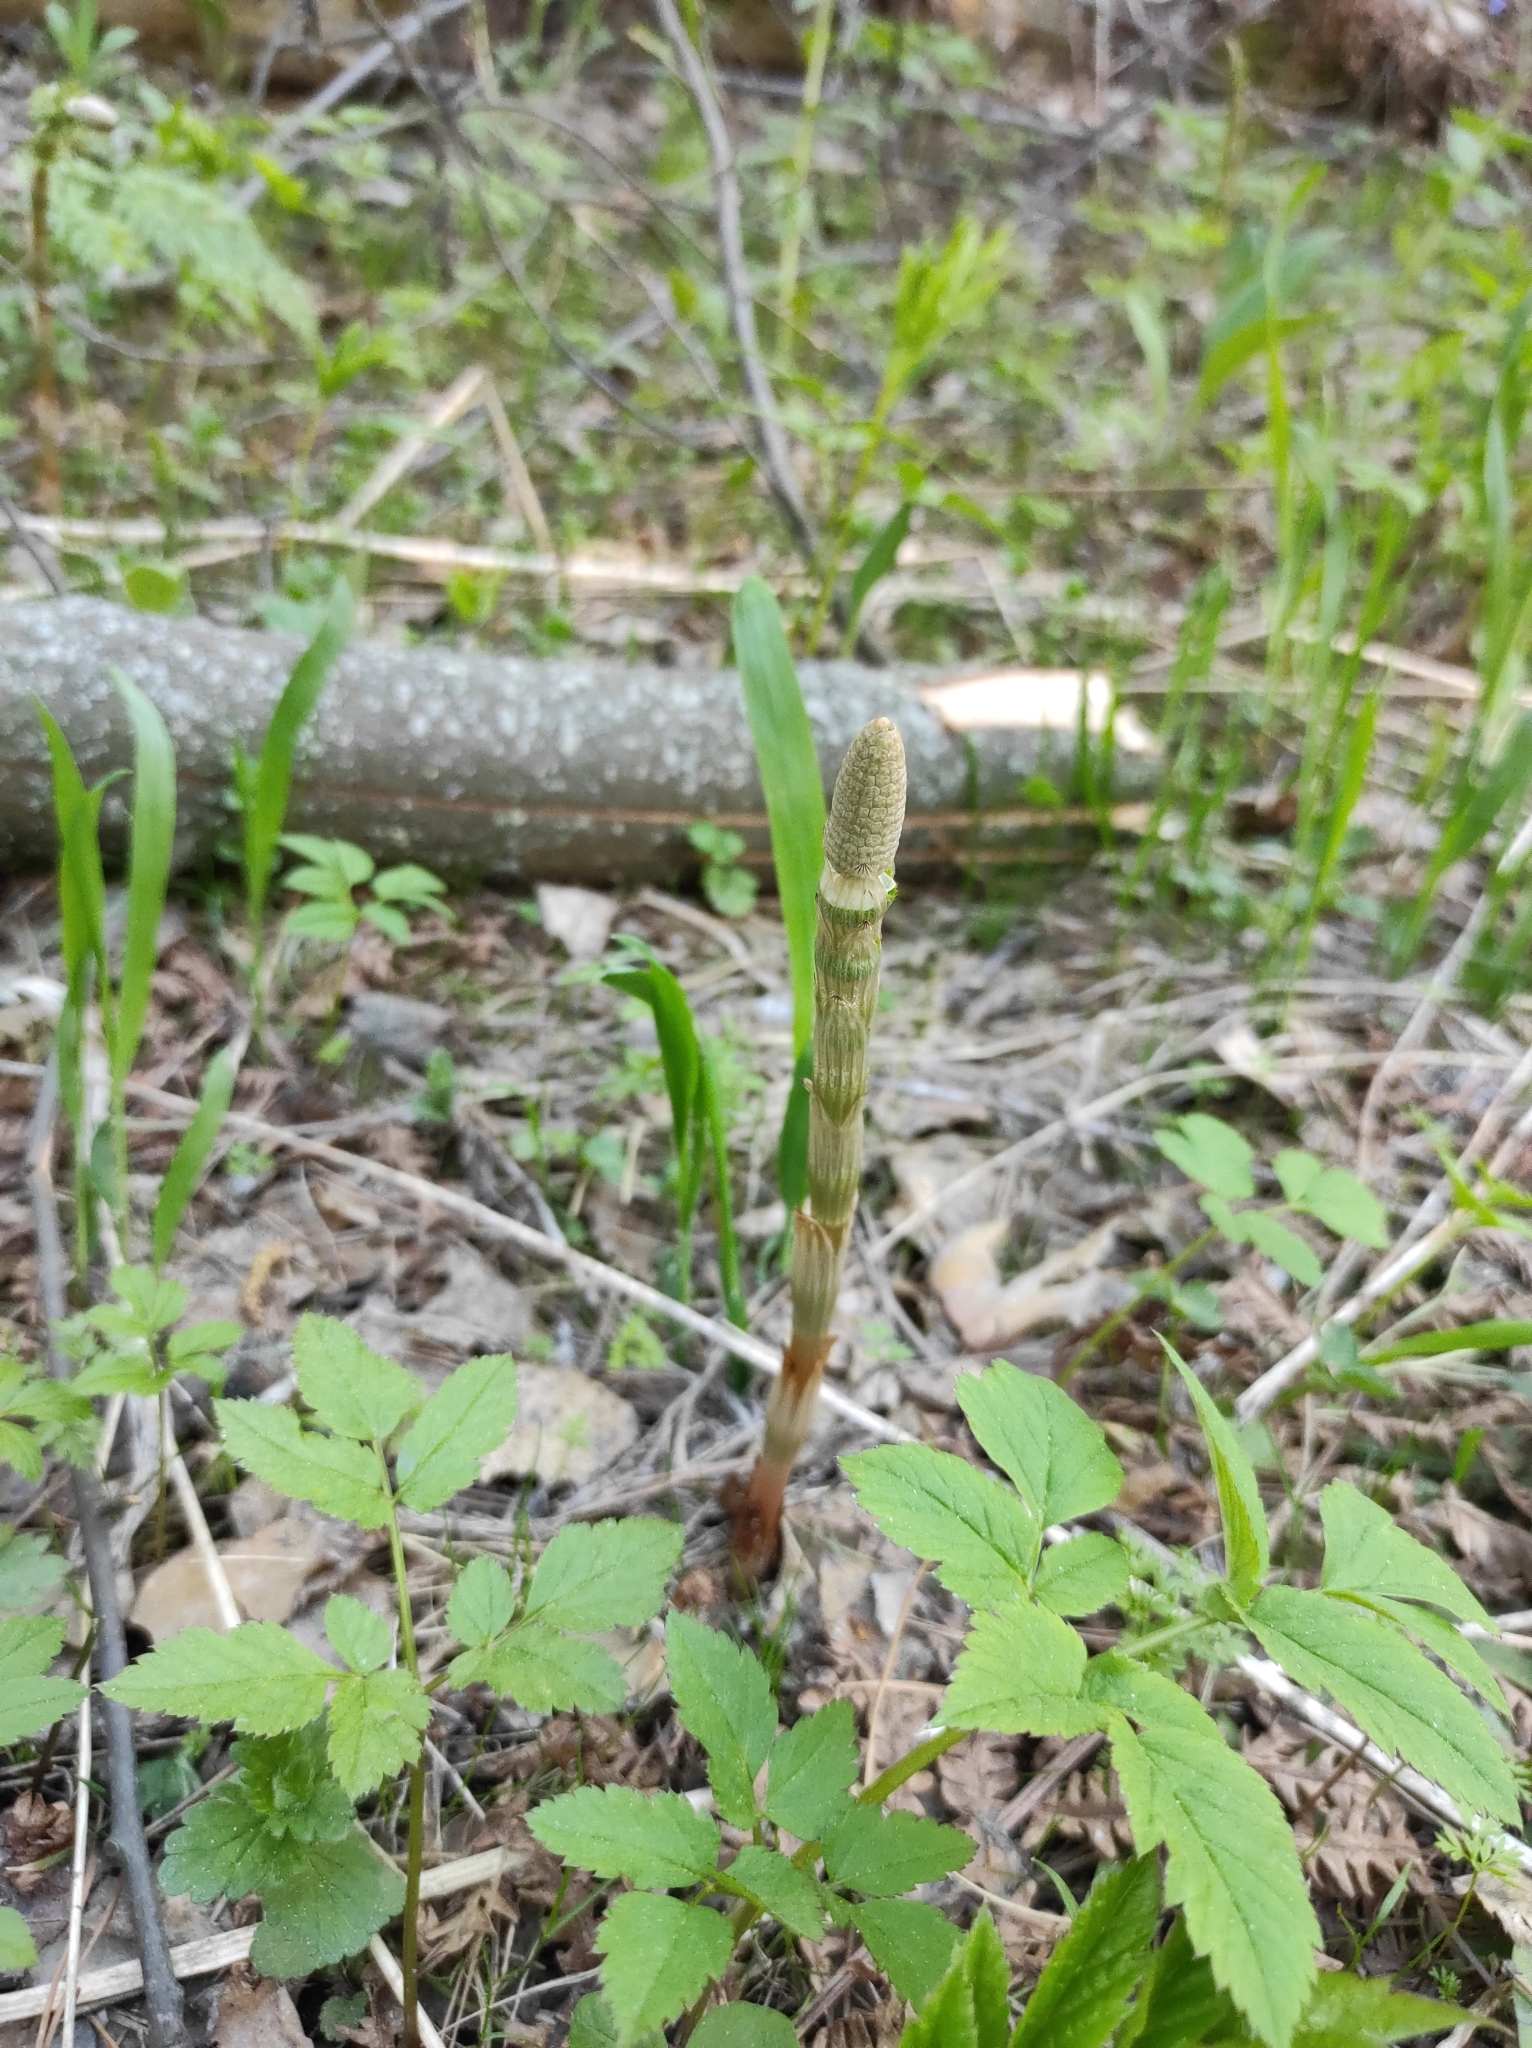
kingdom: Plantae
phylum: Tracheophyta
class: Polypodiopsida
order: Equisetales
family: Equisetaceae
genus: Equisetum
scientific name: Equisetum sylvaticum
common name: Wood horsetail
